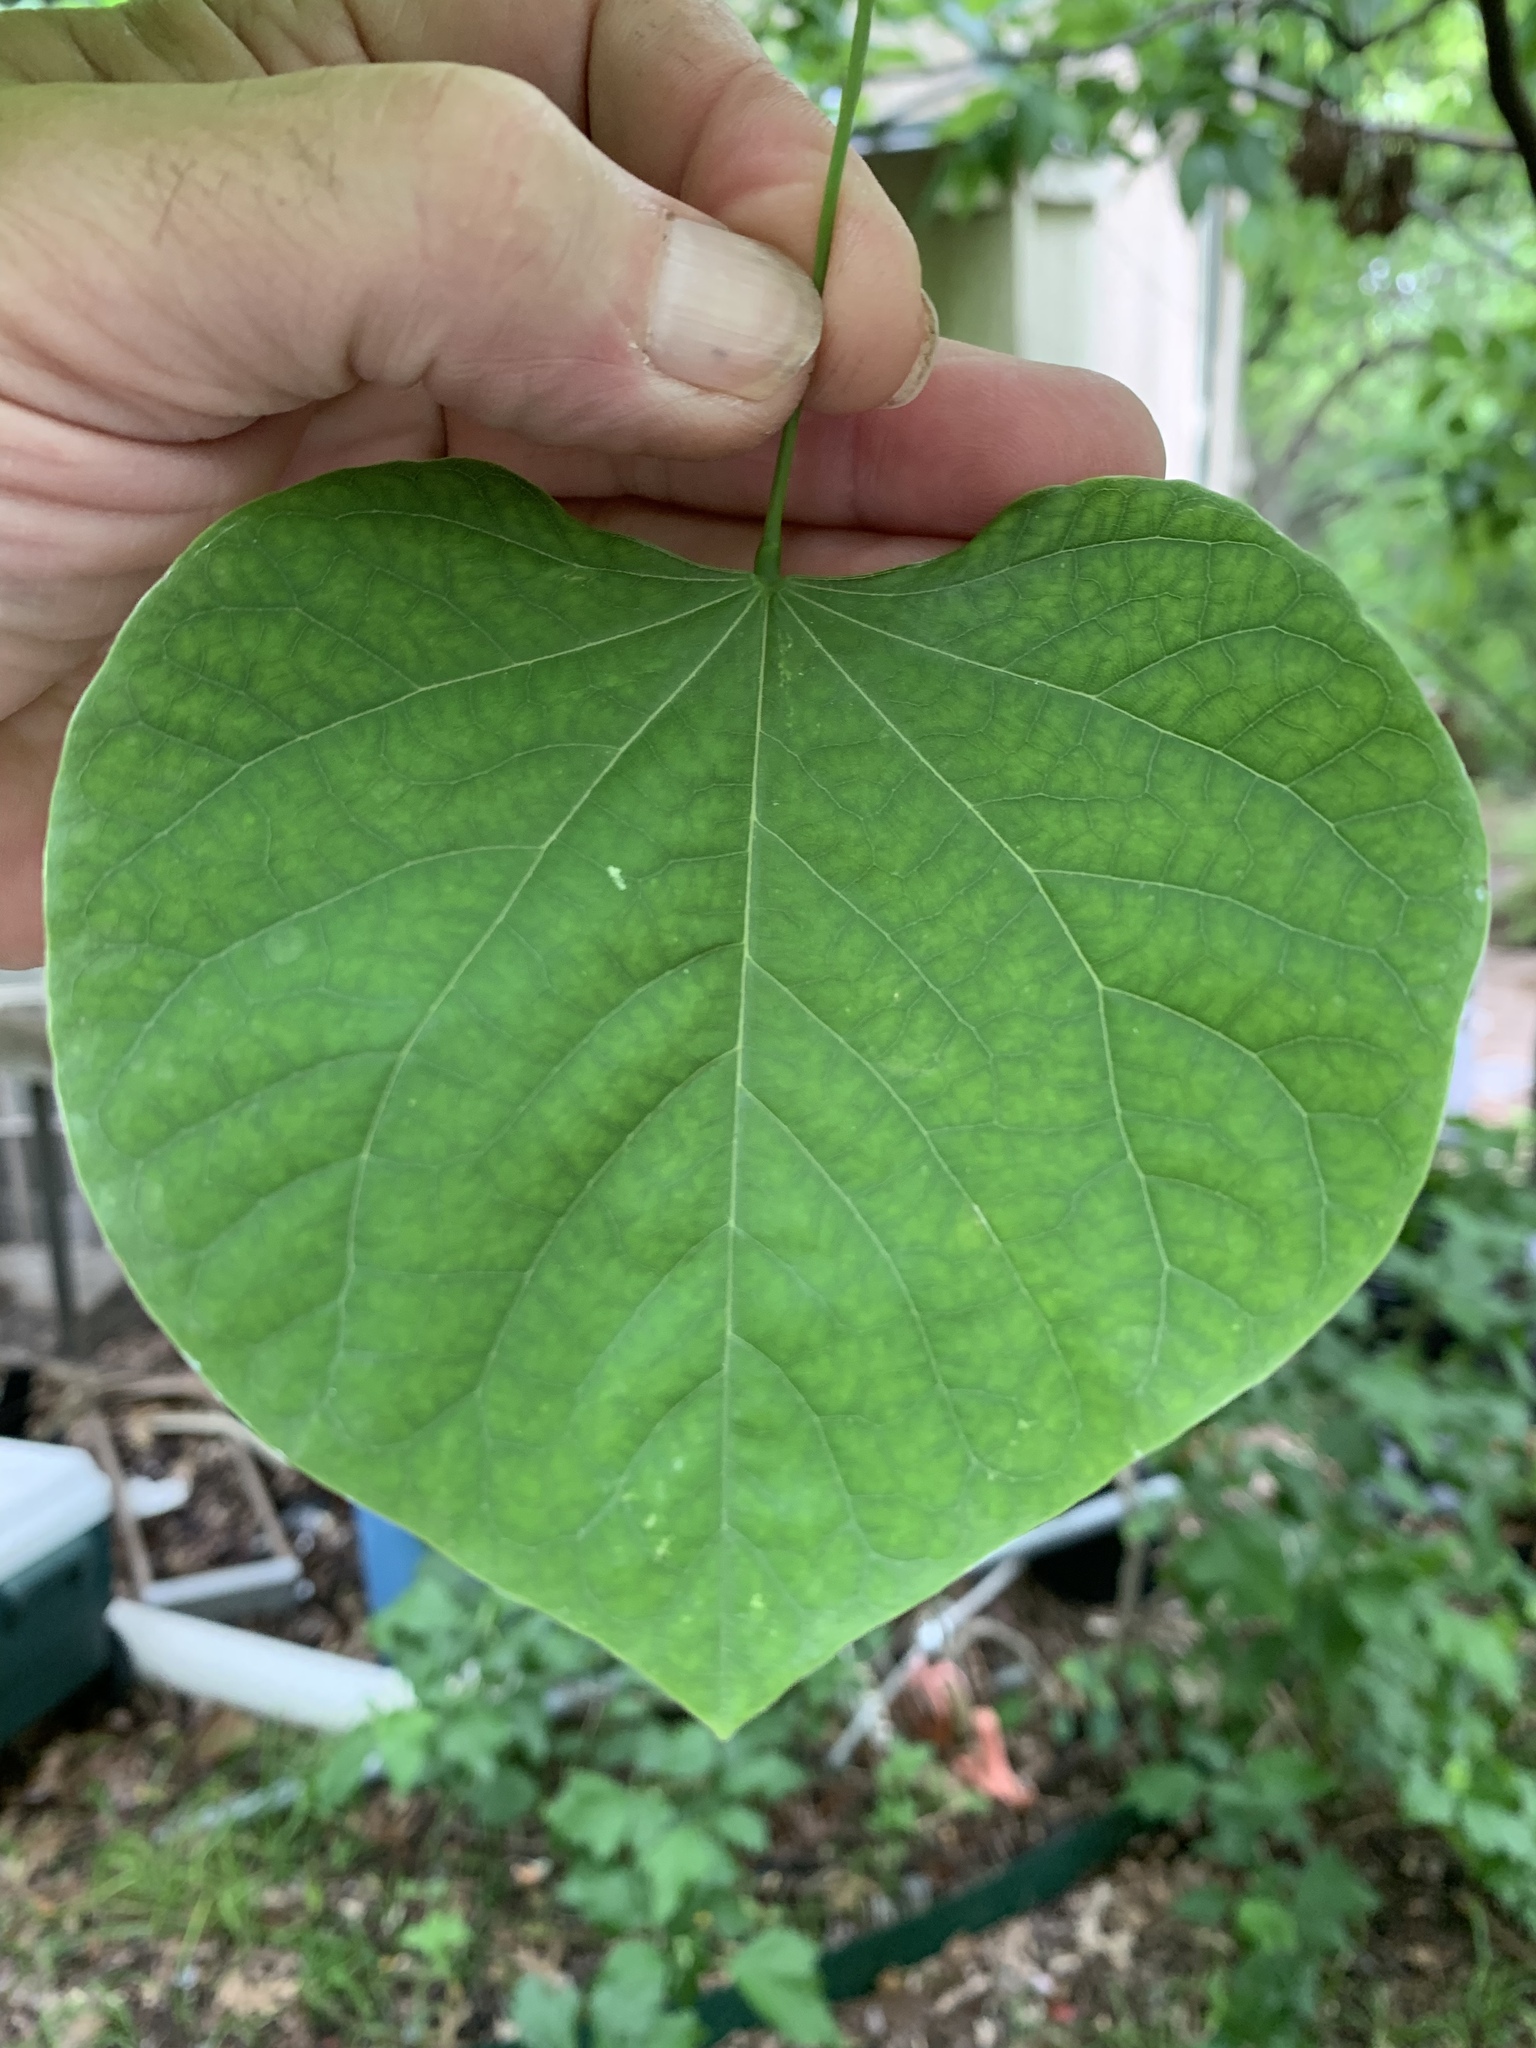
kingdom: Plantae
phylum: Tracheophyta
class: Magnoliopsida
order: Fabales
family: Fabaceae
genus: Cercis
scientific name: Cercis canadensis
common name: Eastern redbud
